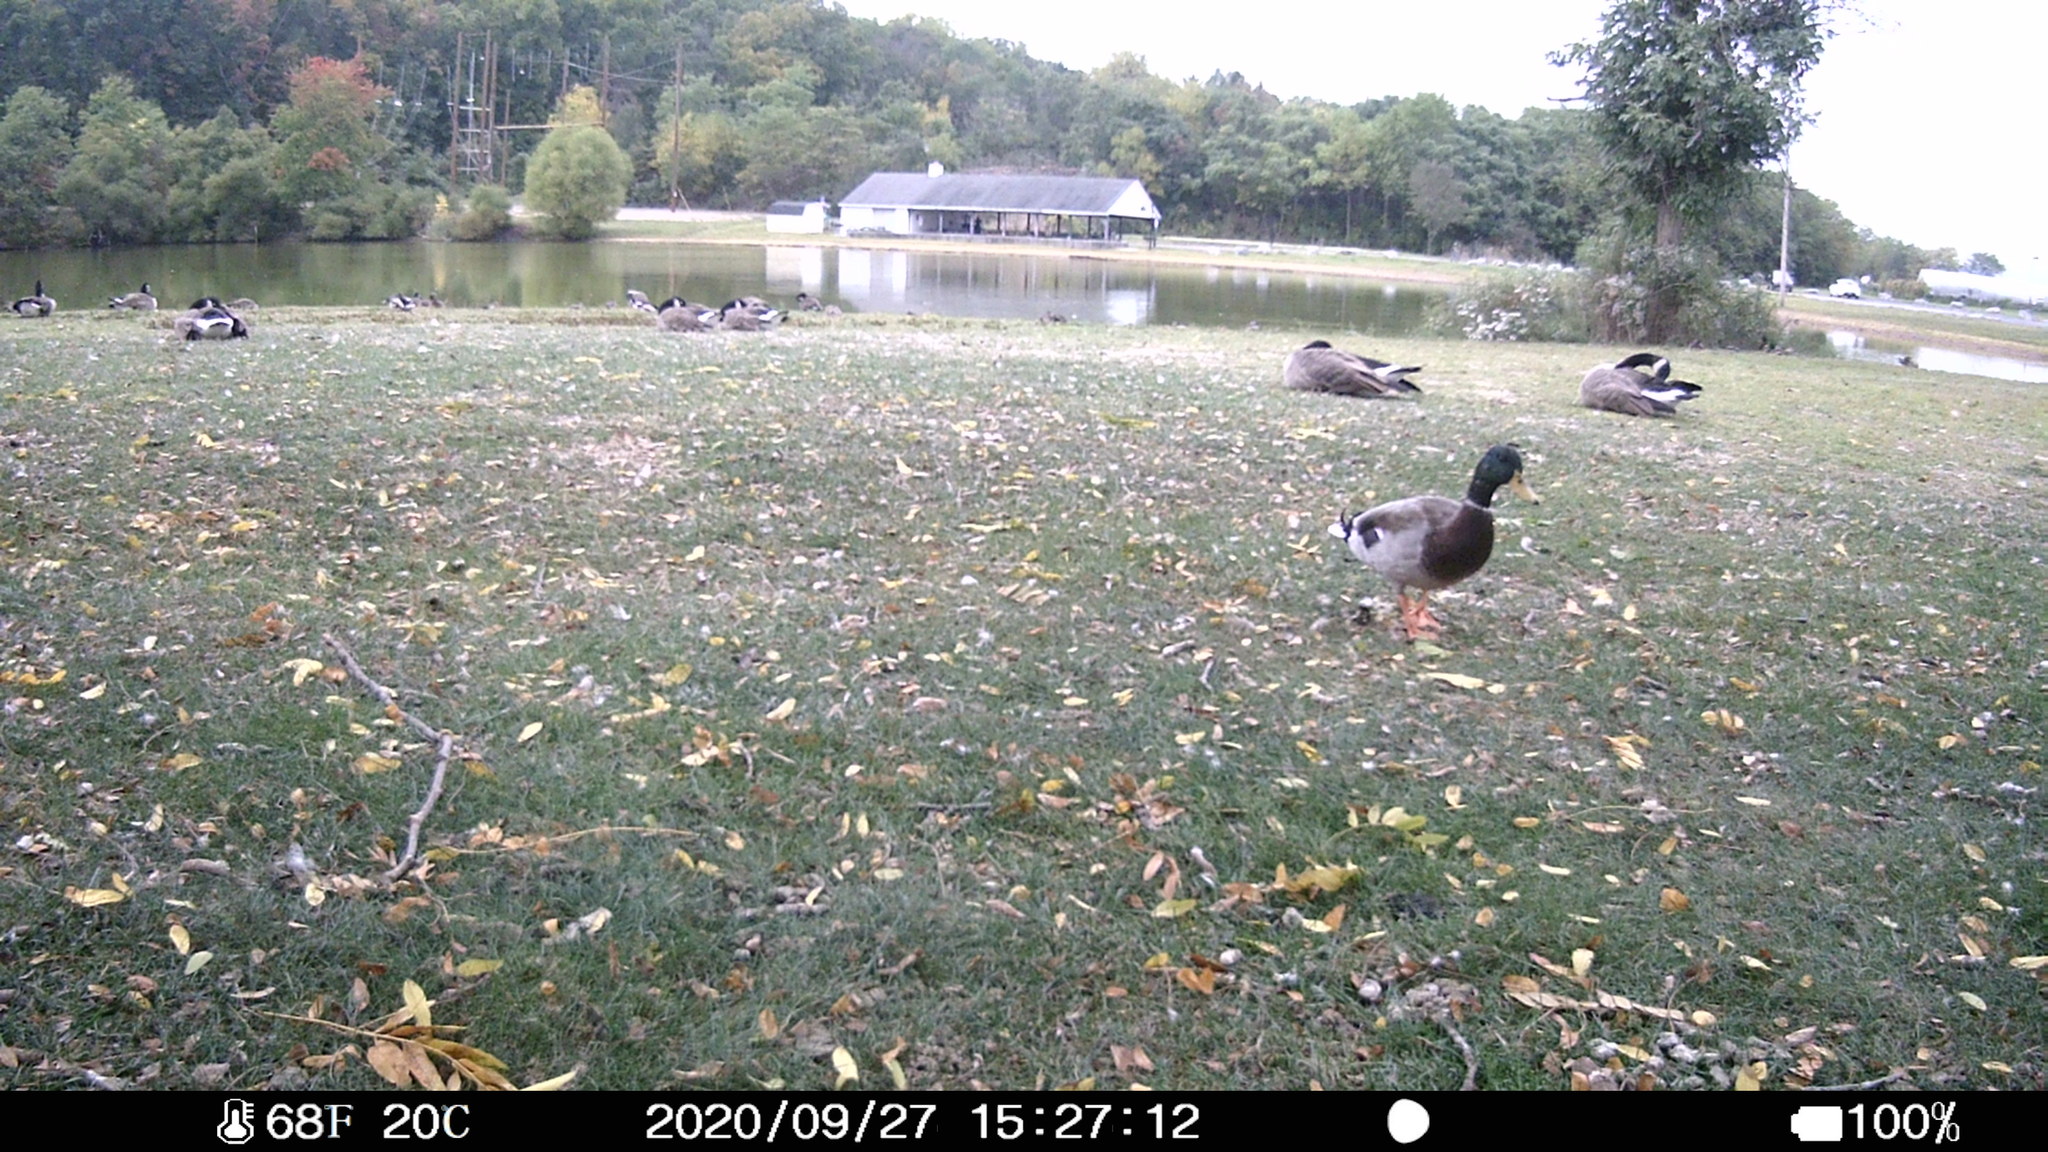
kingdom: Animalia
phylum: Chordata
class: Aves
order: Anseriformes
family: Anatidae
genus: Anas
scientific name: Anas platyrhynchos
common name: Mallard
